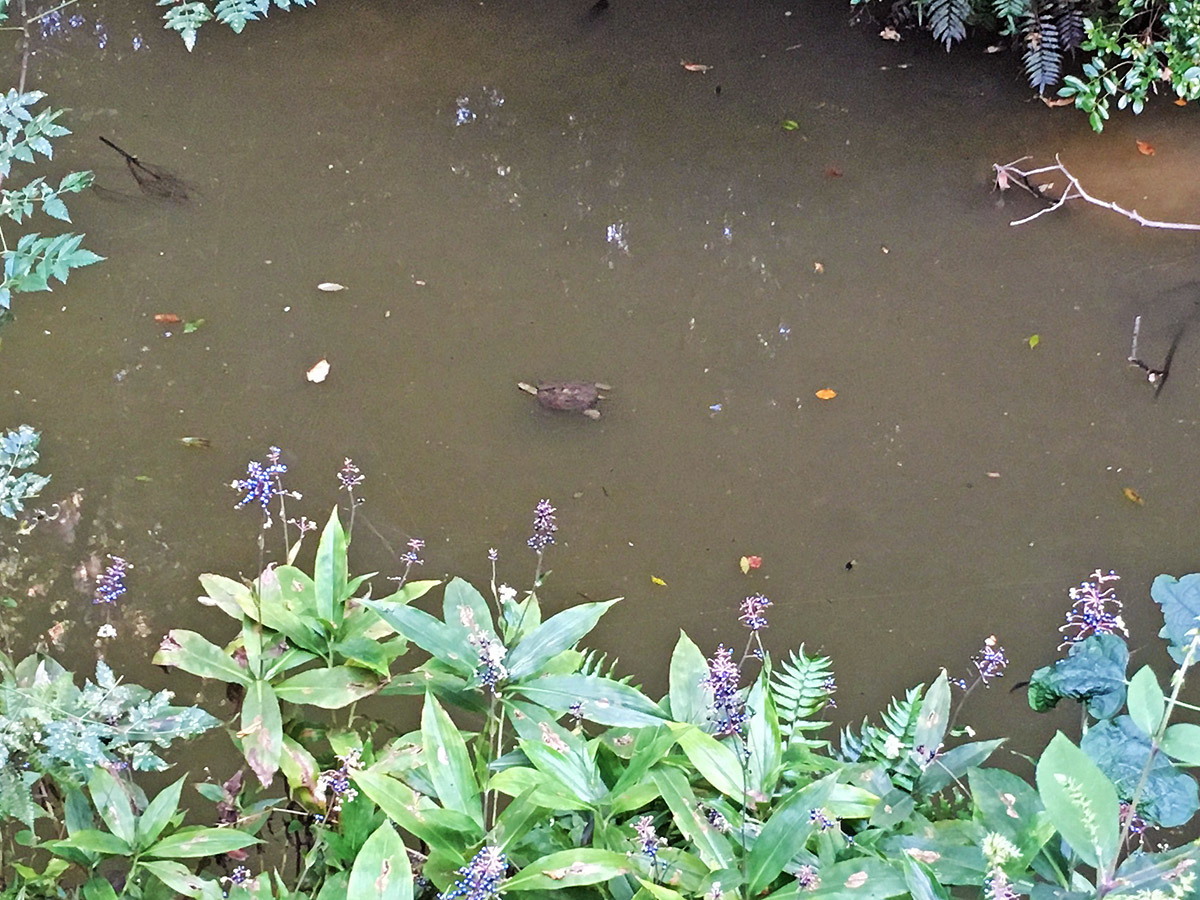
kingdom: Animalia
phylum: Chordata
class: Testudines
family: Geoemydidae
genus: Mauremys
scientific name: Mauremys japonica
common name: Japanese pond turtle
